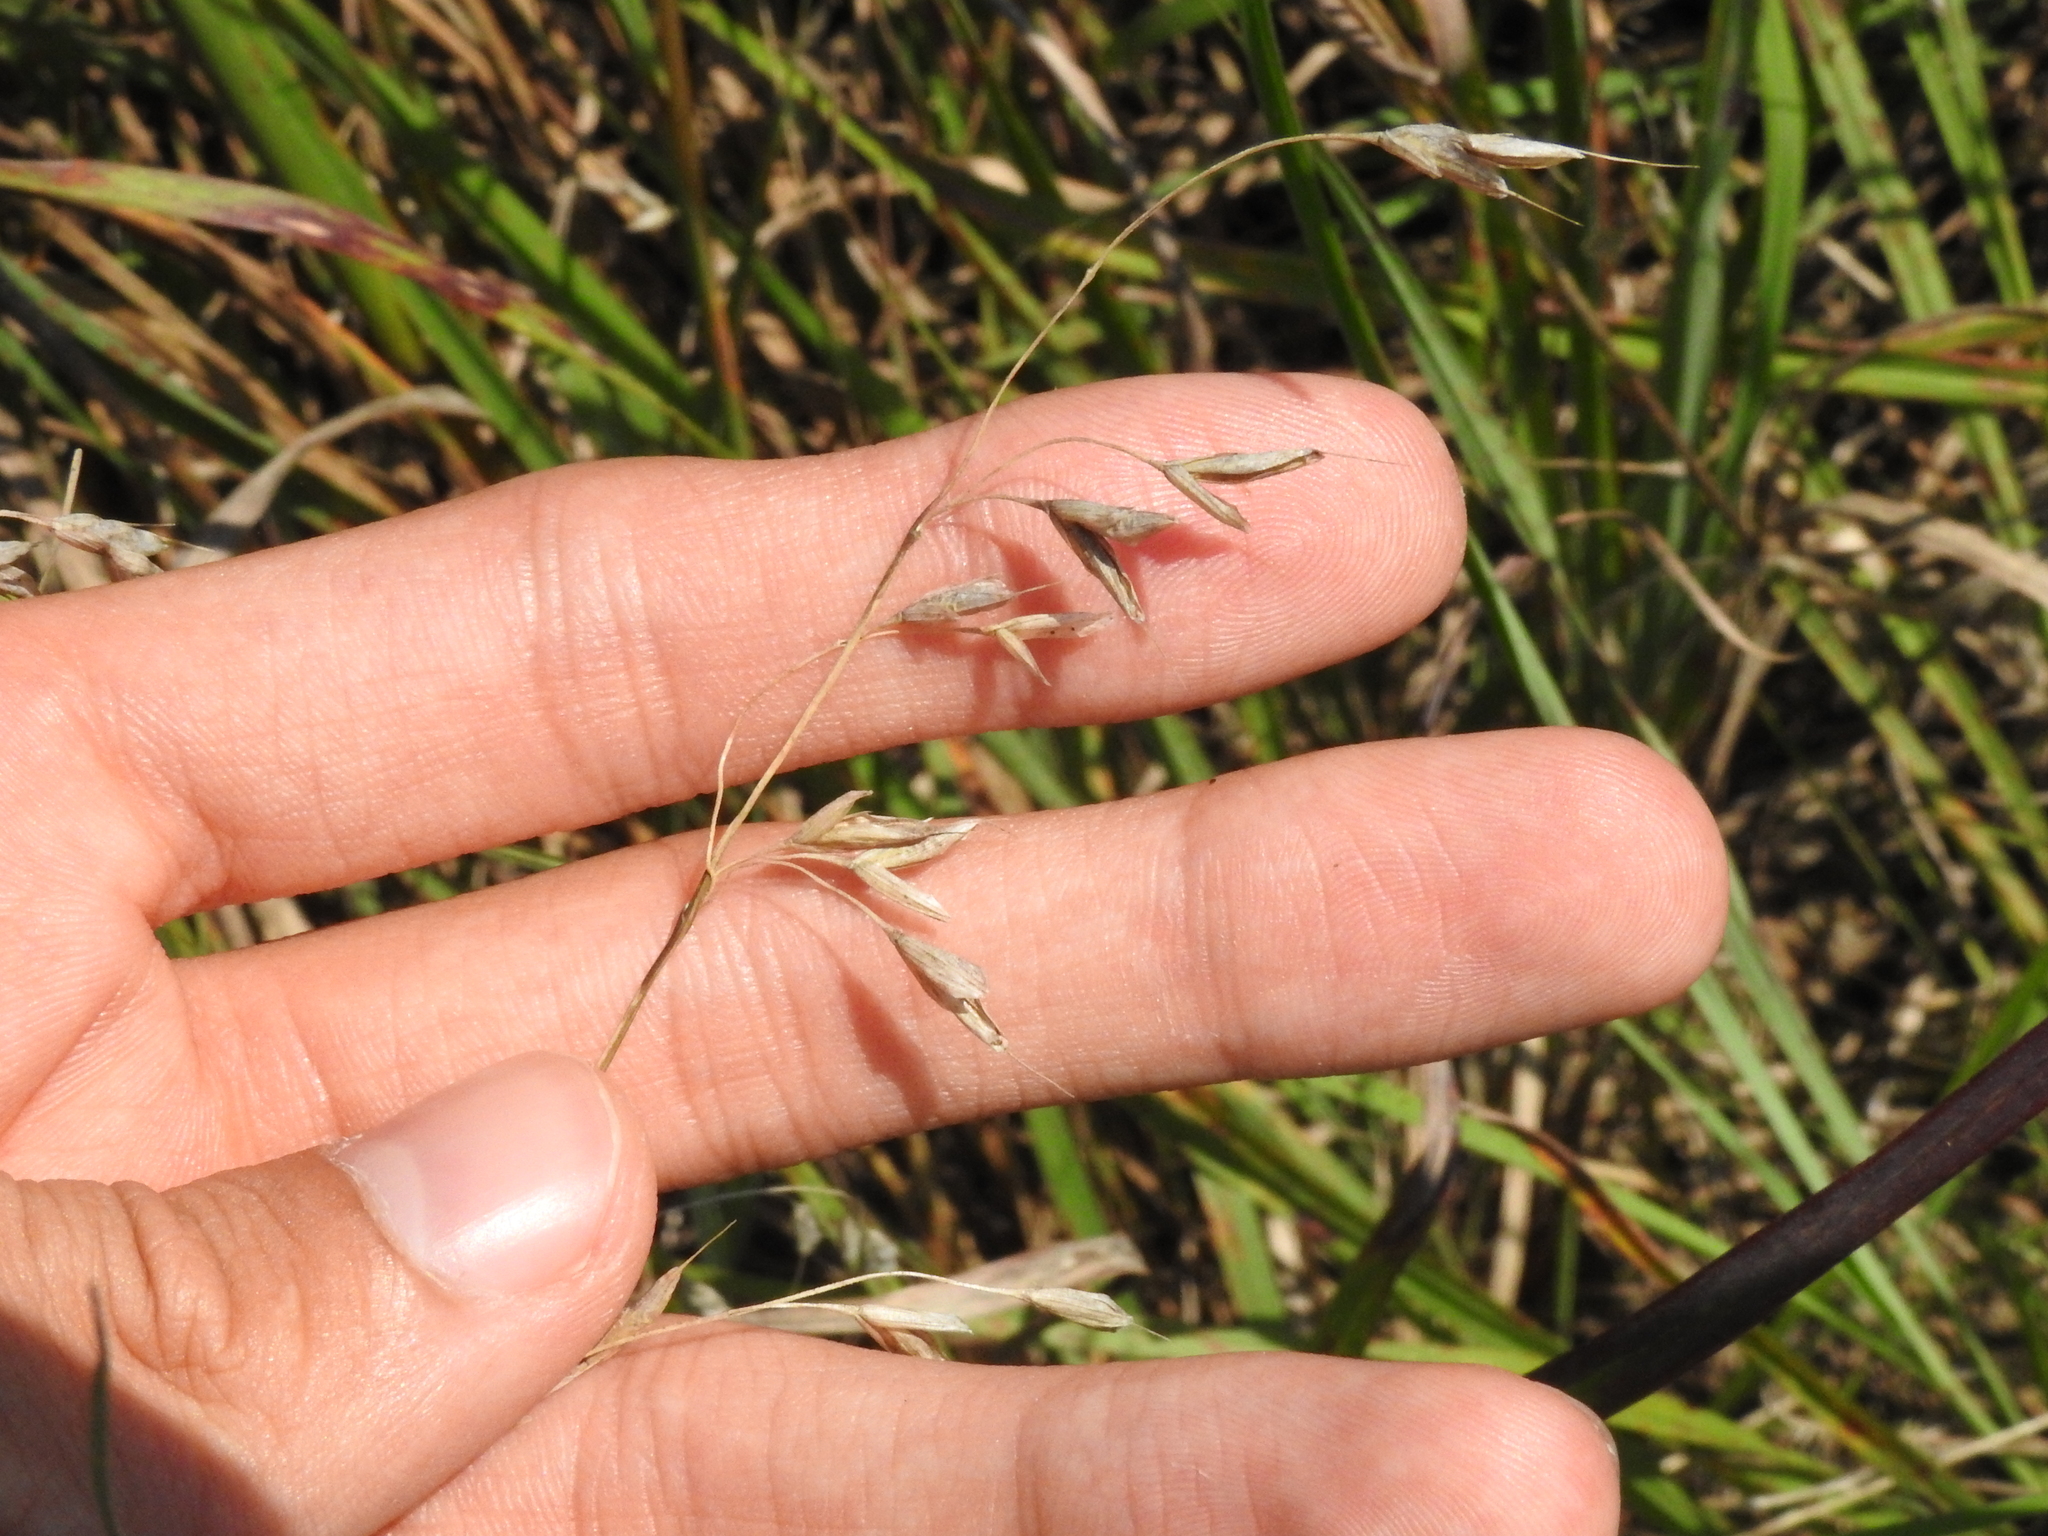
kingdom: Plantae
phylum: Tracheophyta
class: Liliopsida
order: Poales
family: Poaceae
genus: Bromus
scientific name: Bromus japonicus
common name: Japanese brome
